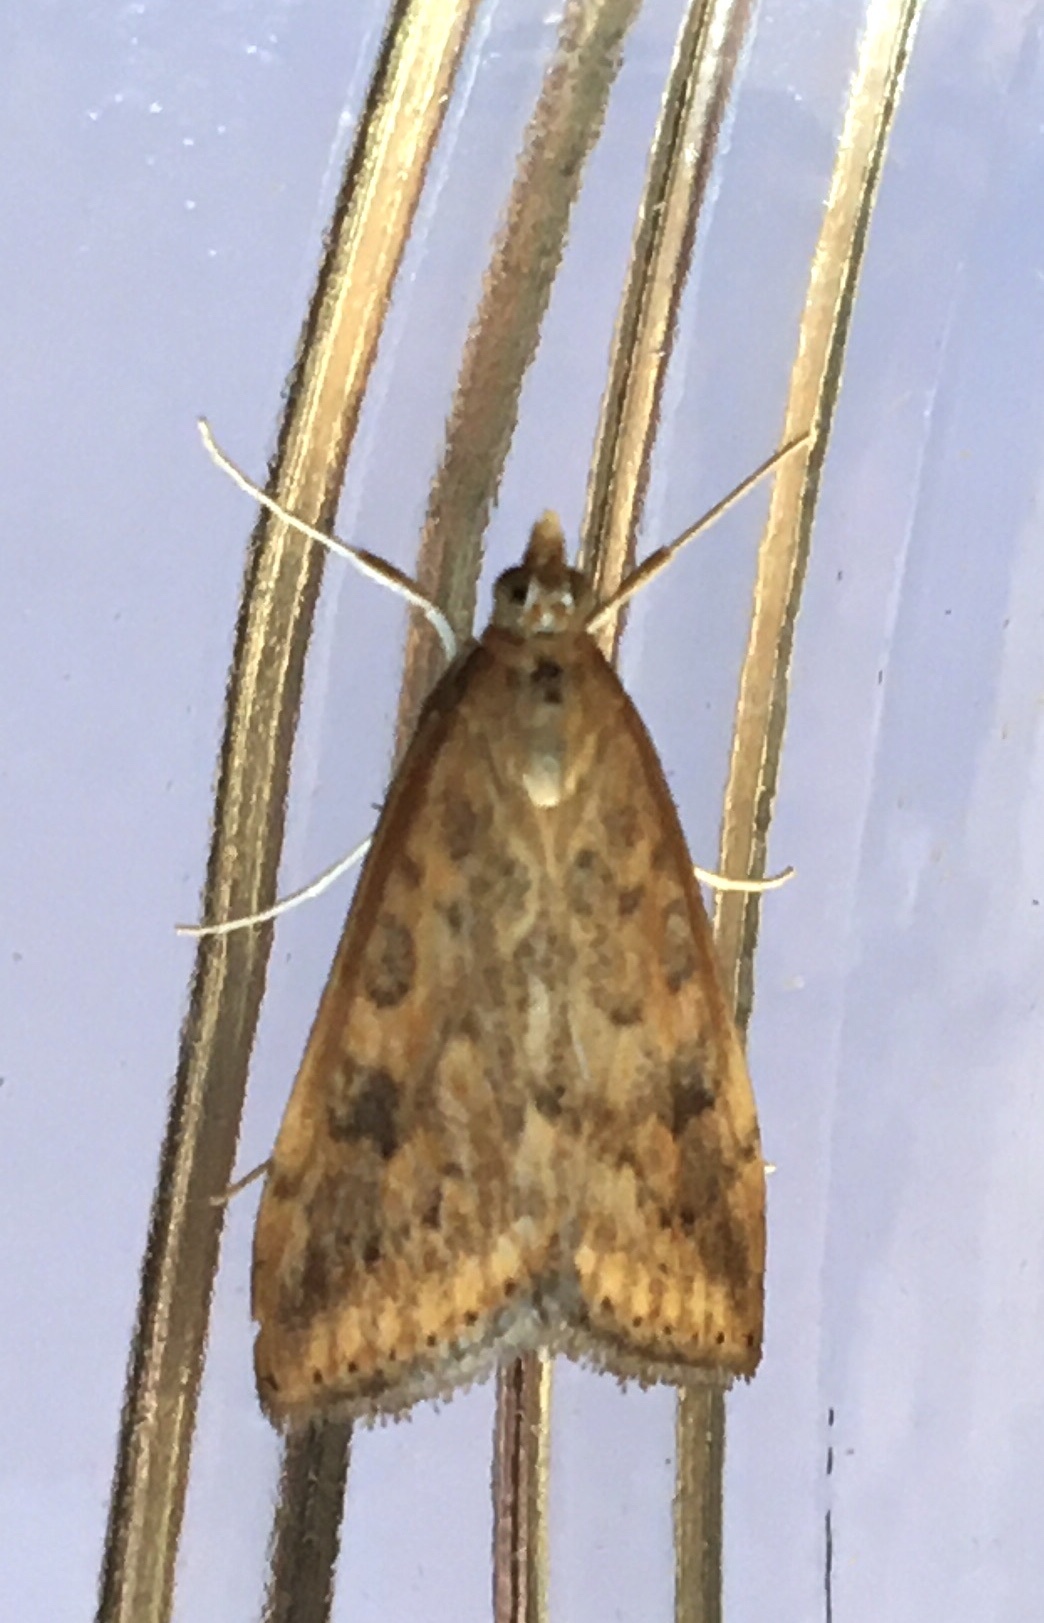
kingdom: Animalia
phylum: Arthropoda
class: Insecta
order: Lepidoptera
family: Crambidae
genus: Udea
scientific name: Udea ferrugalis
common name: Rusty dot
